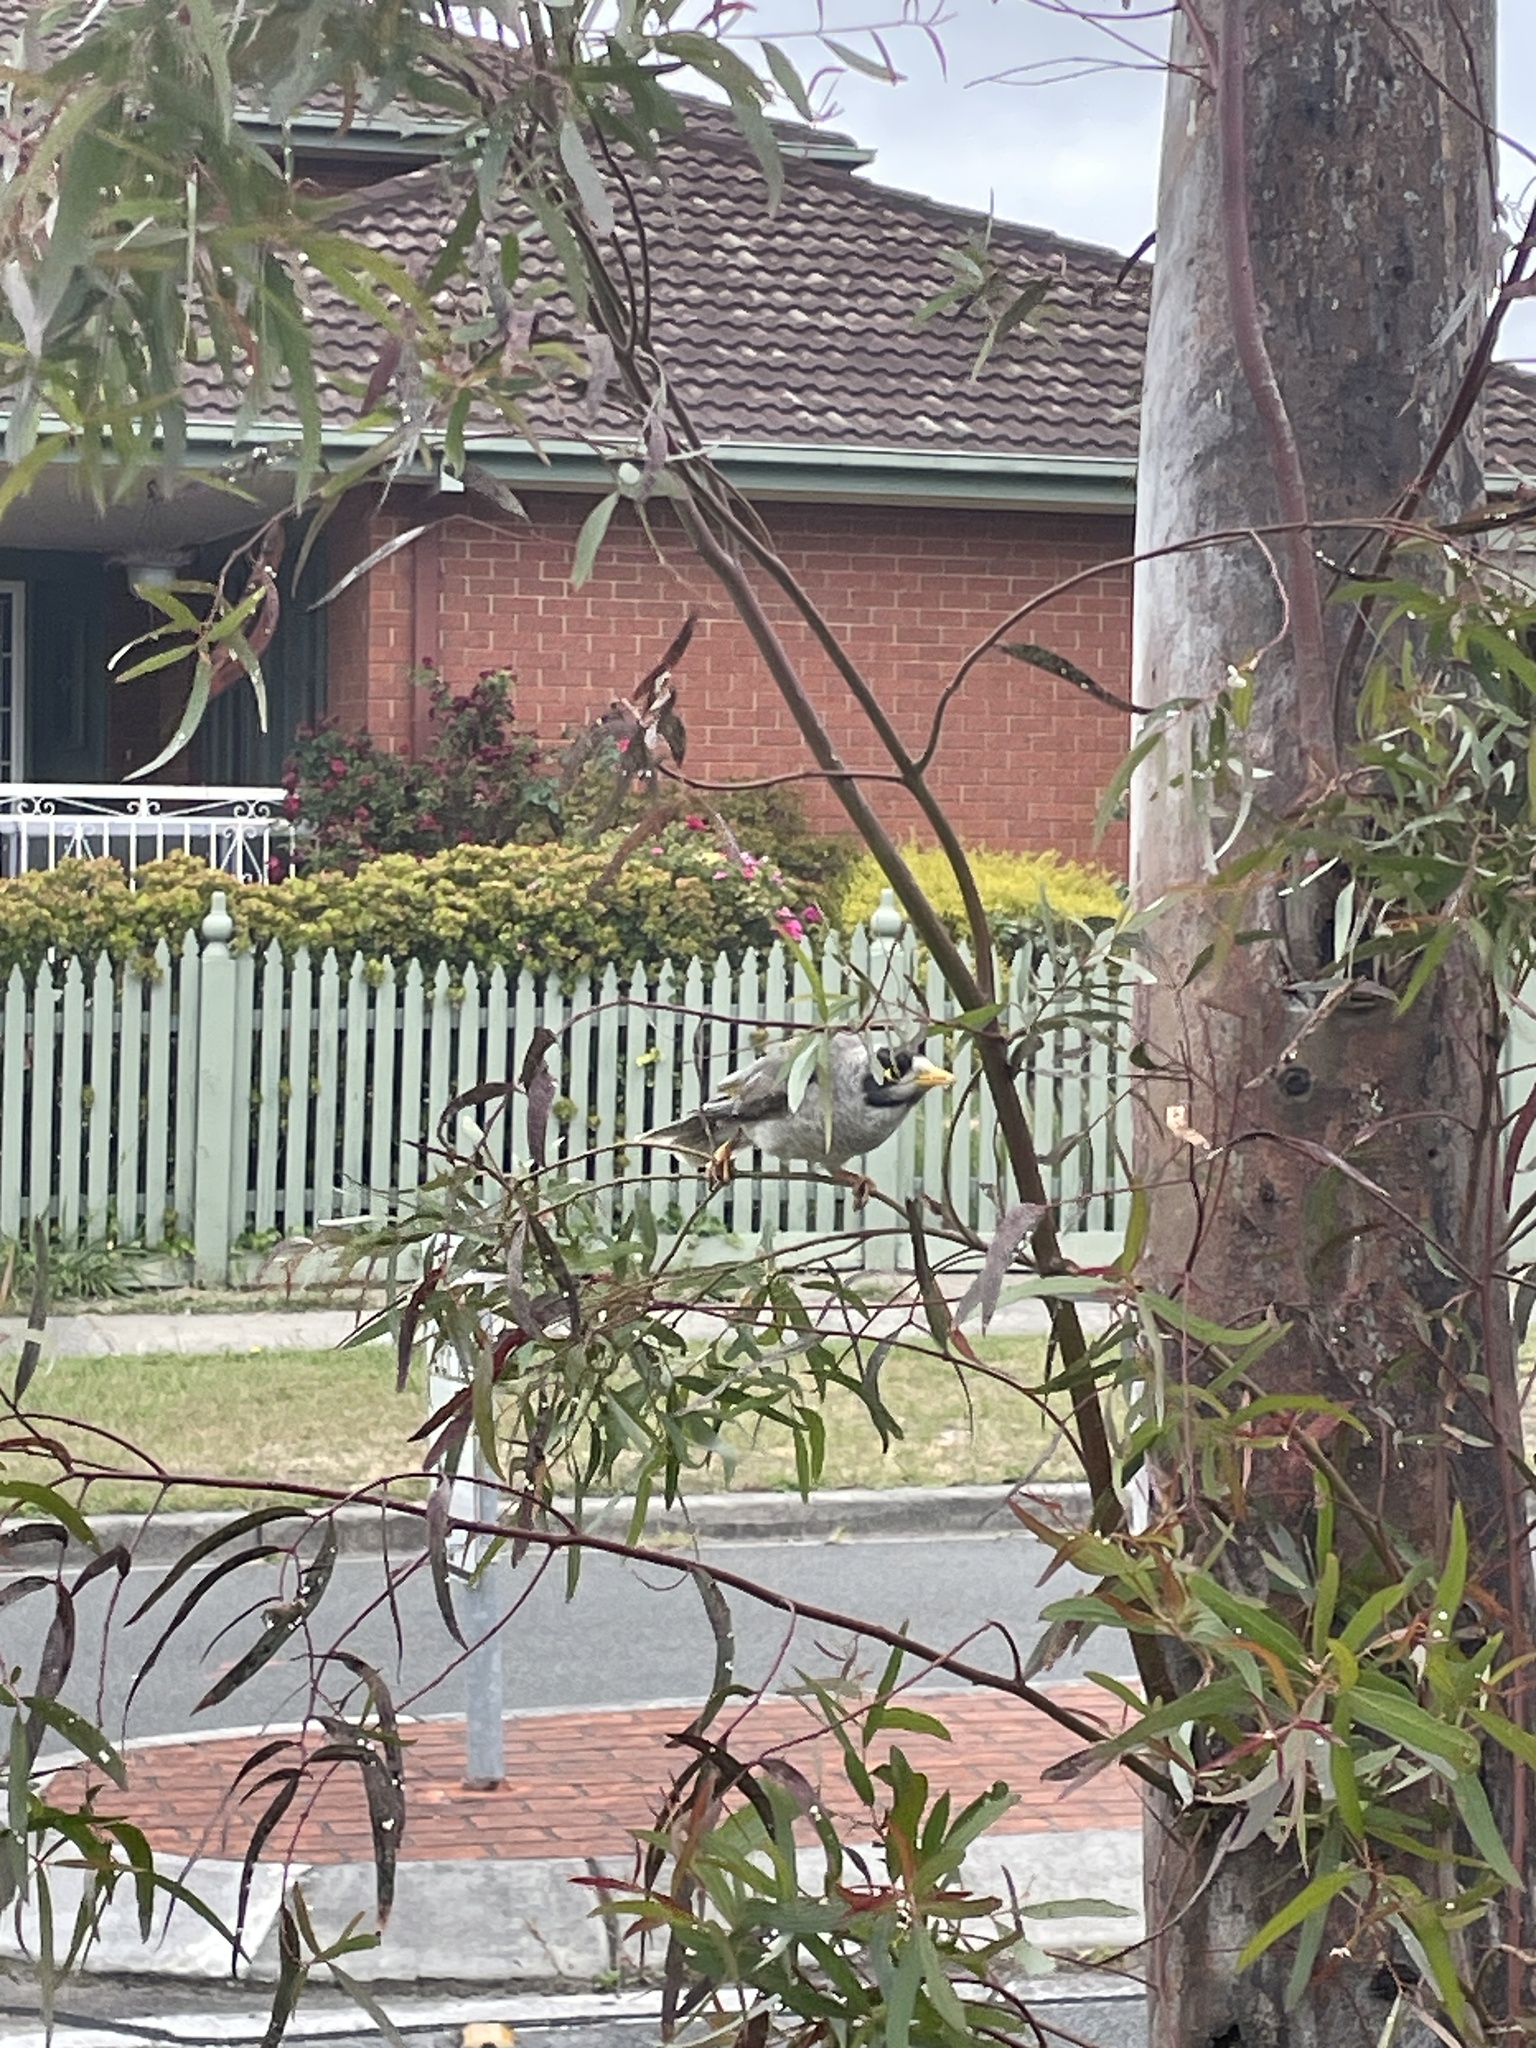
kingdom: Animalia
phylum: Chordata
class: Aves
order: Passeriformes
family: Meliphagidae
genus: Manorina
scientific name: Manorina melanocephala
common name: Noisy miner
